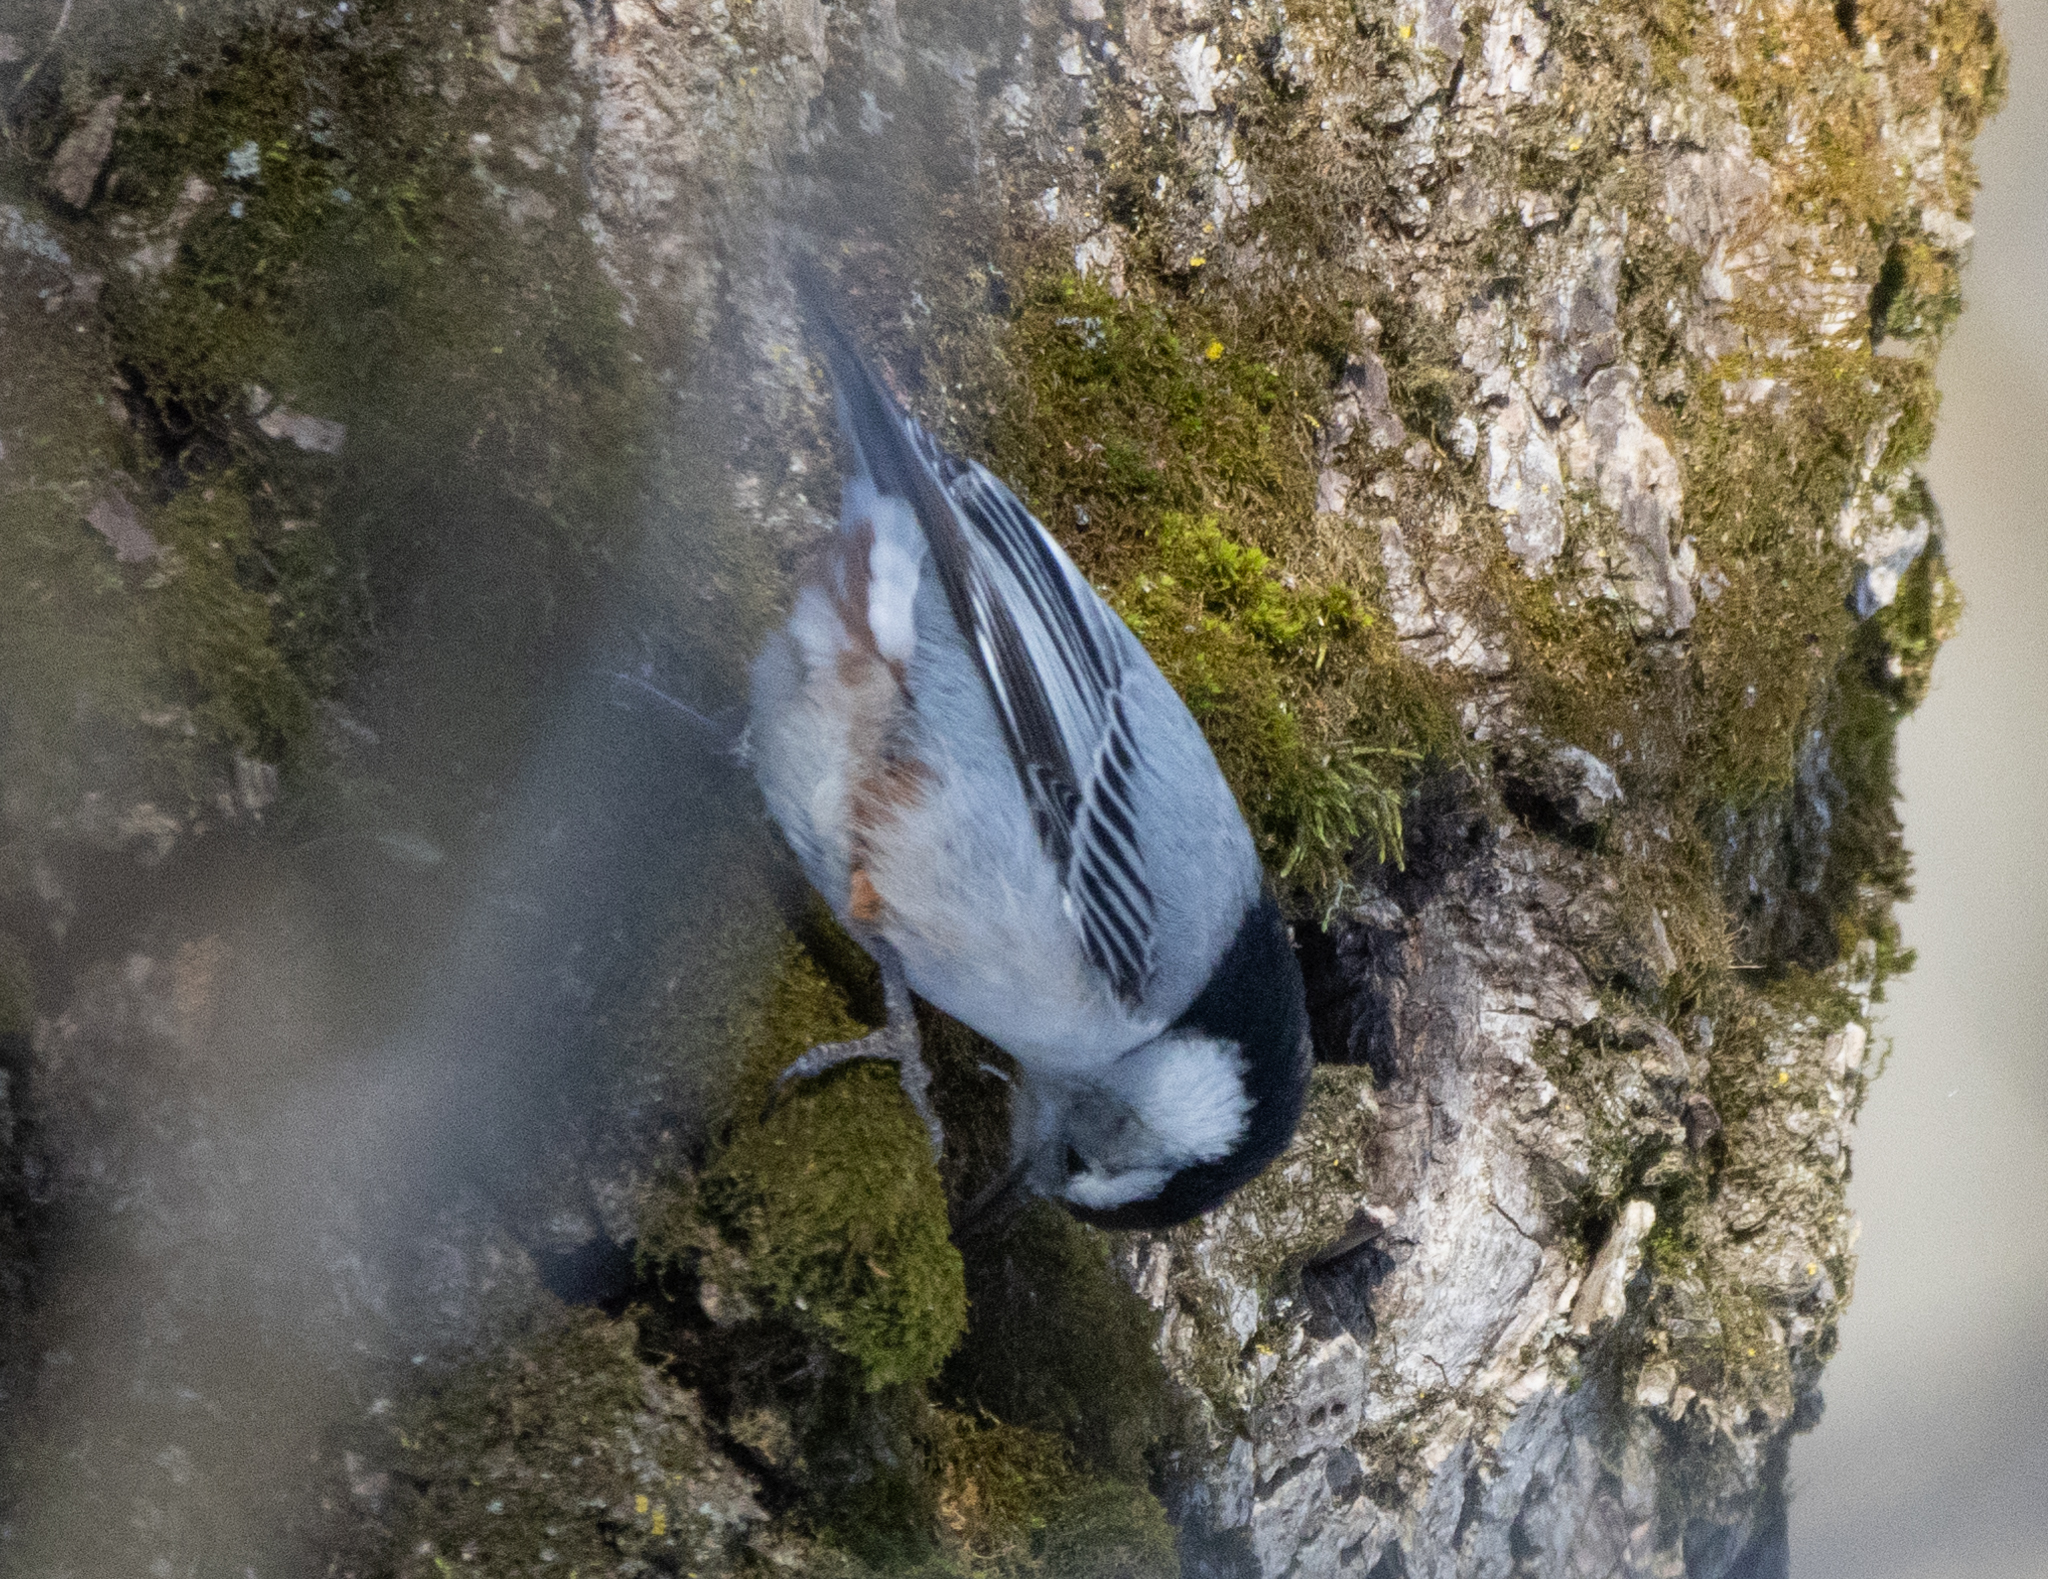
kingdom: Animalia
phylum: Chordata
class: Aves
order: Passeriformes
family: Sittidae
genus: Sitta
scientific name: Sitta carolinensis
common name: White-breasted nuthatch
